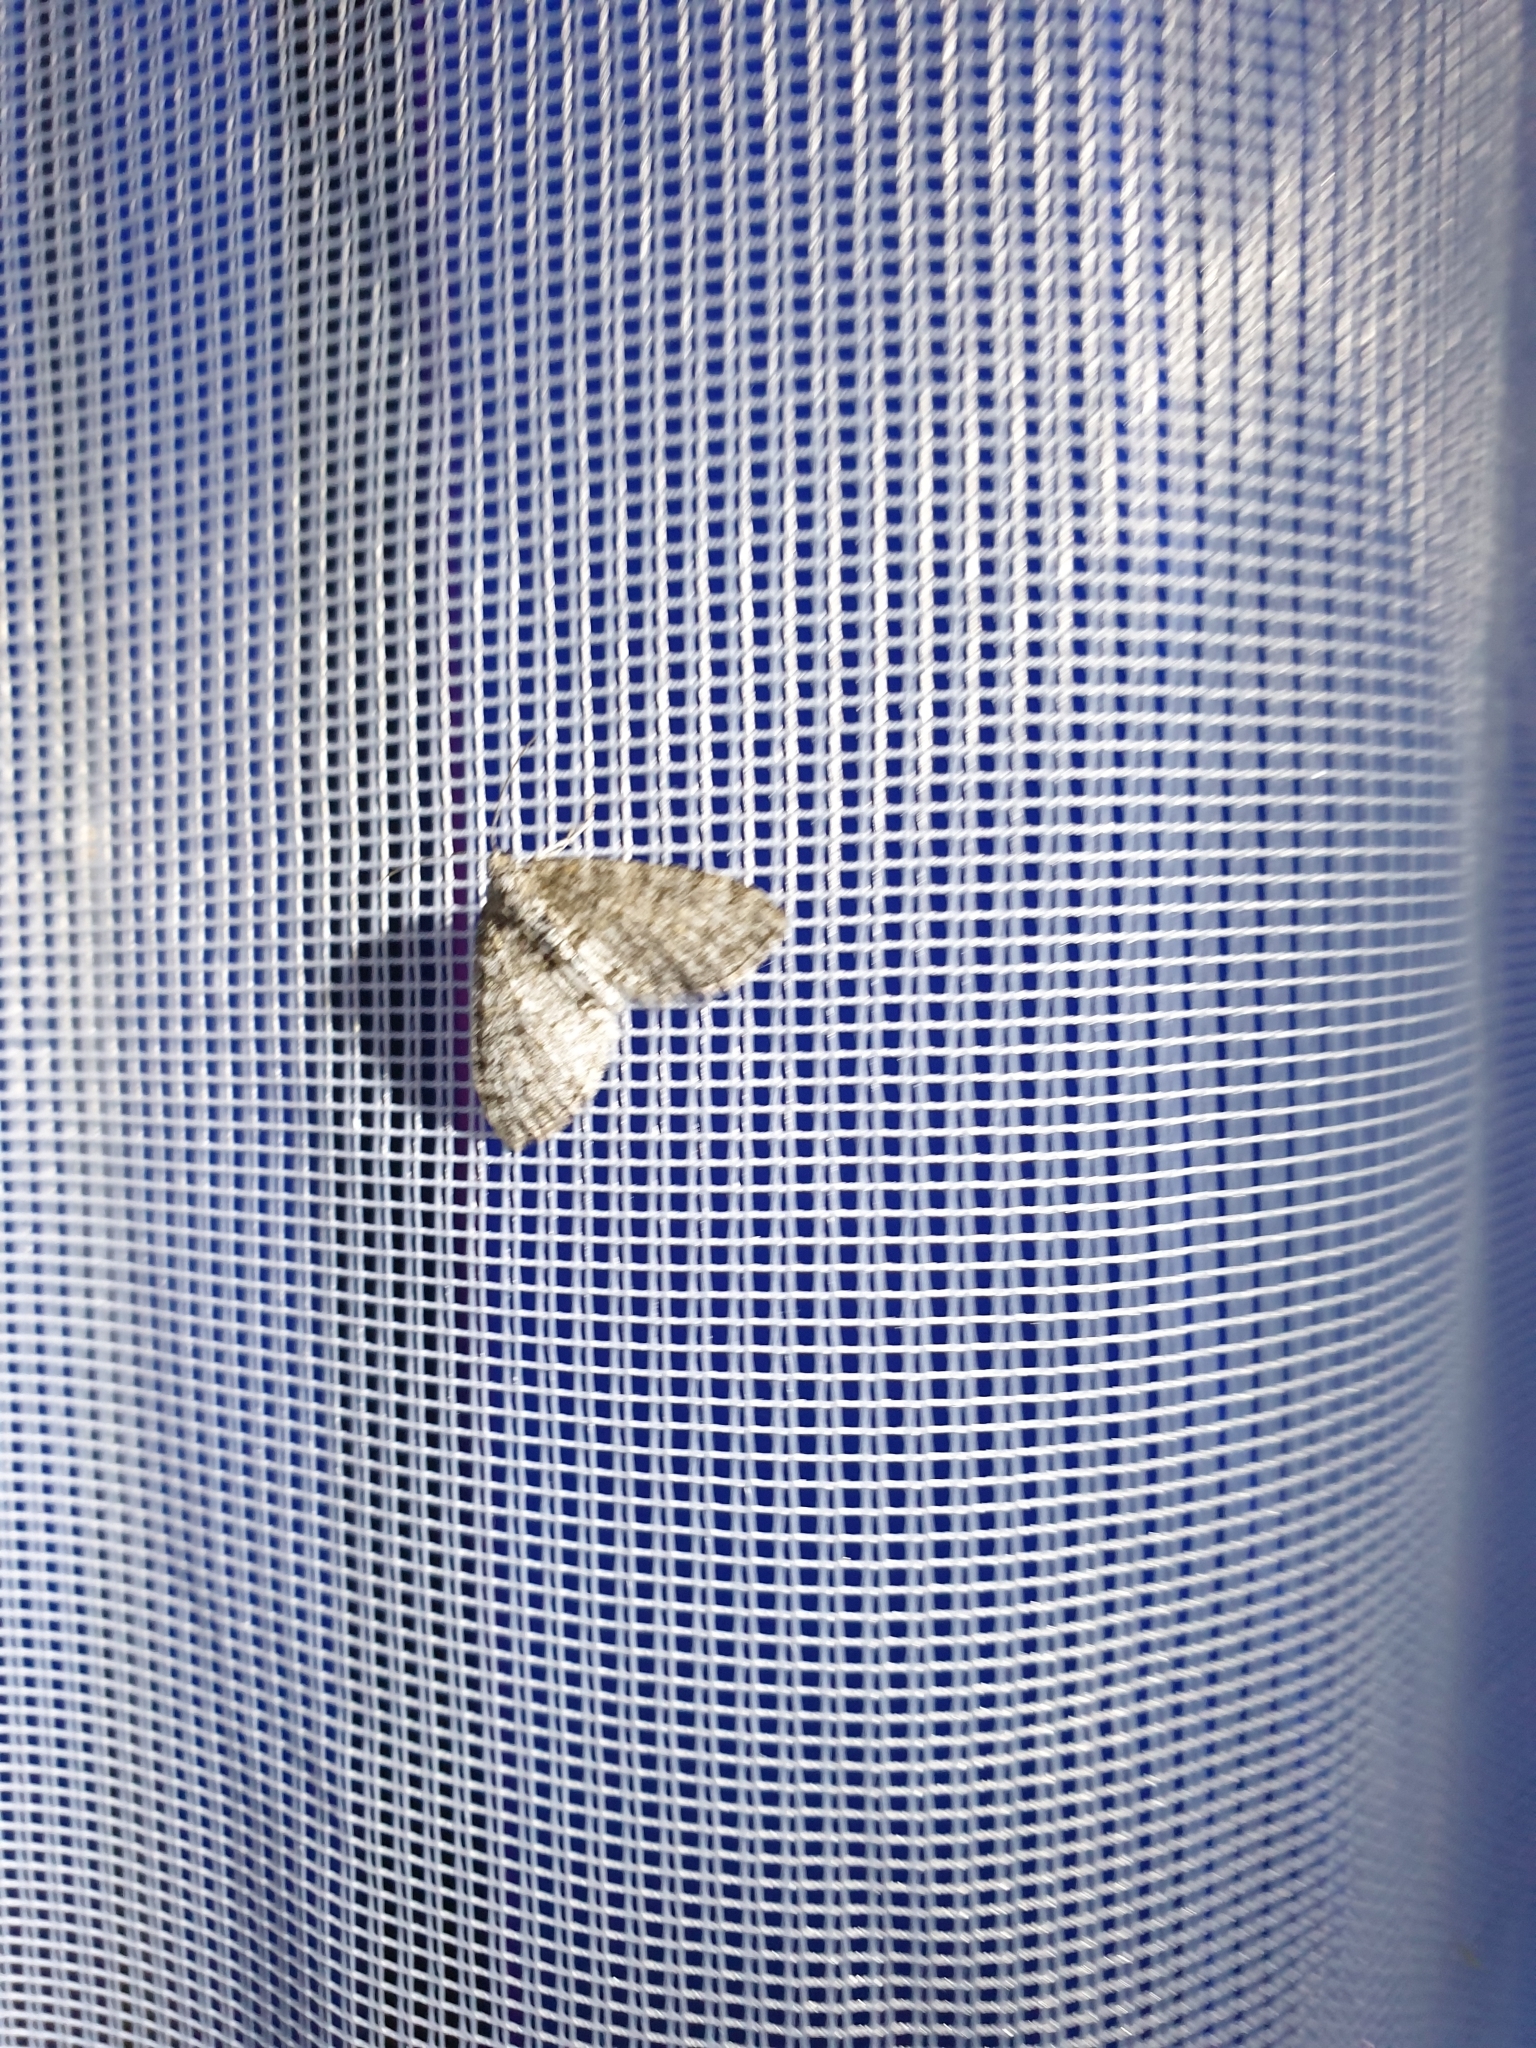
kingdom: Animalia
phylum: Arthropoda
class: Insecta
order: Lepidoptera
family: Geometridae
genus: Lobophora
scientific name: Lobophora halterata
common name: Seraphim
